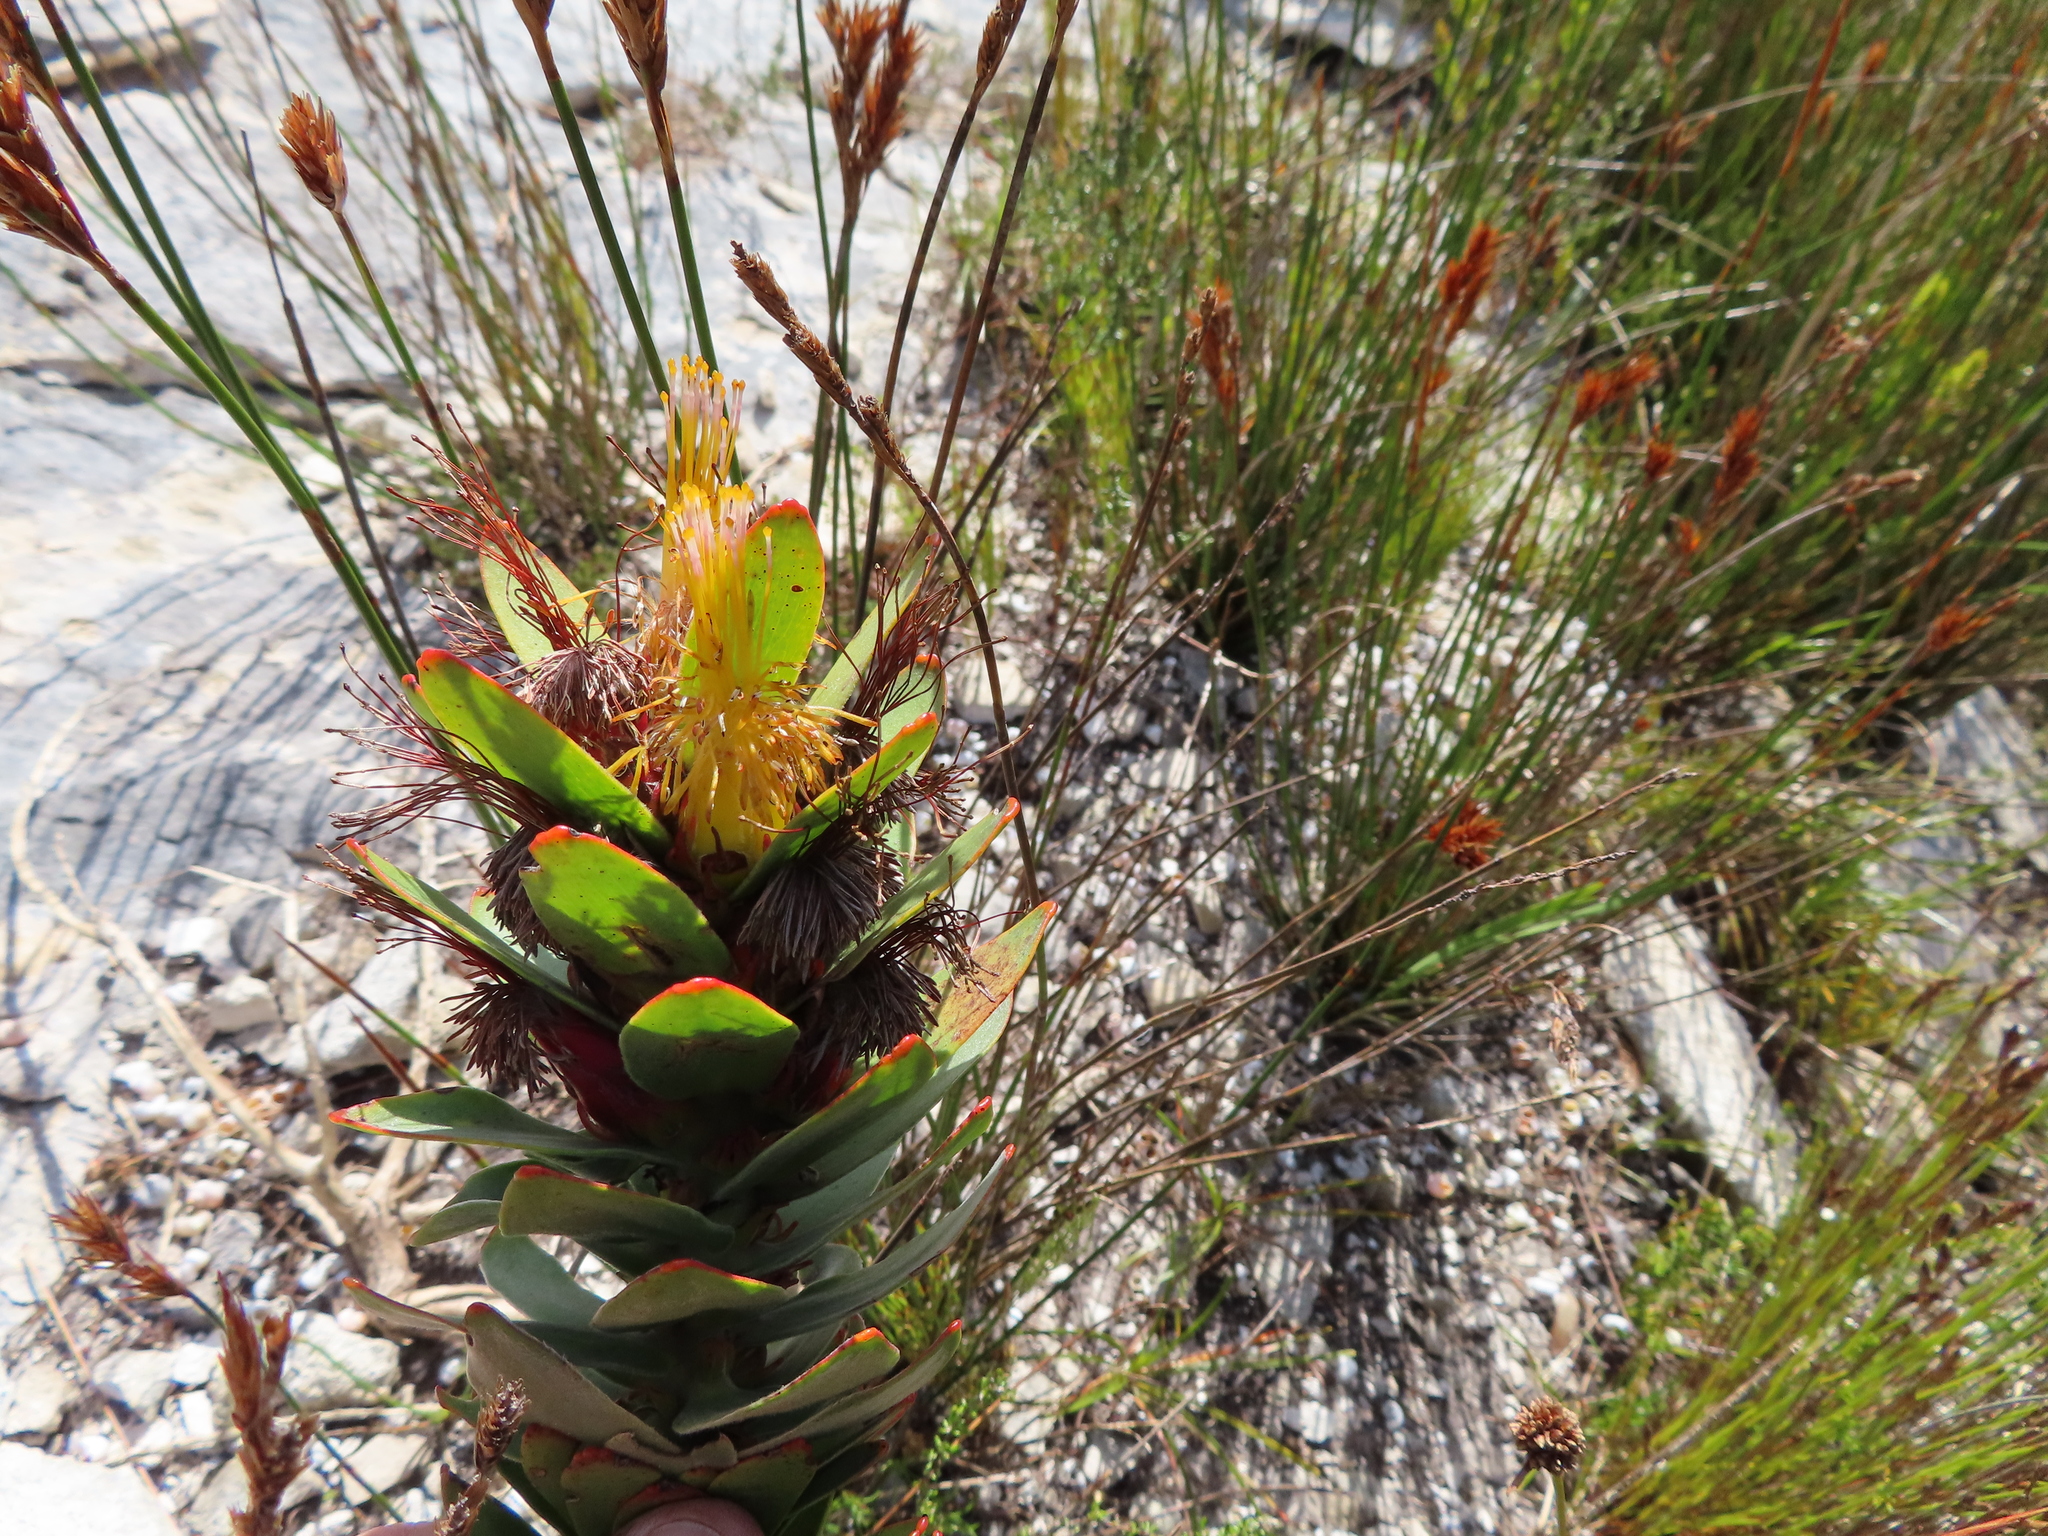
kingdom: Plantae
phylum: Tracheophyta
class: Magnoliopsida
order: Proteales
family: Proteaceae
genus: Mimetes
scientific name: Mimetes saxatilis
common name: Limestone pagoda
